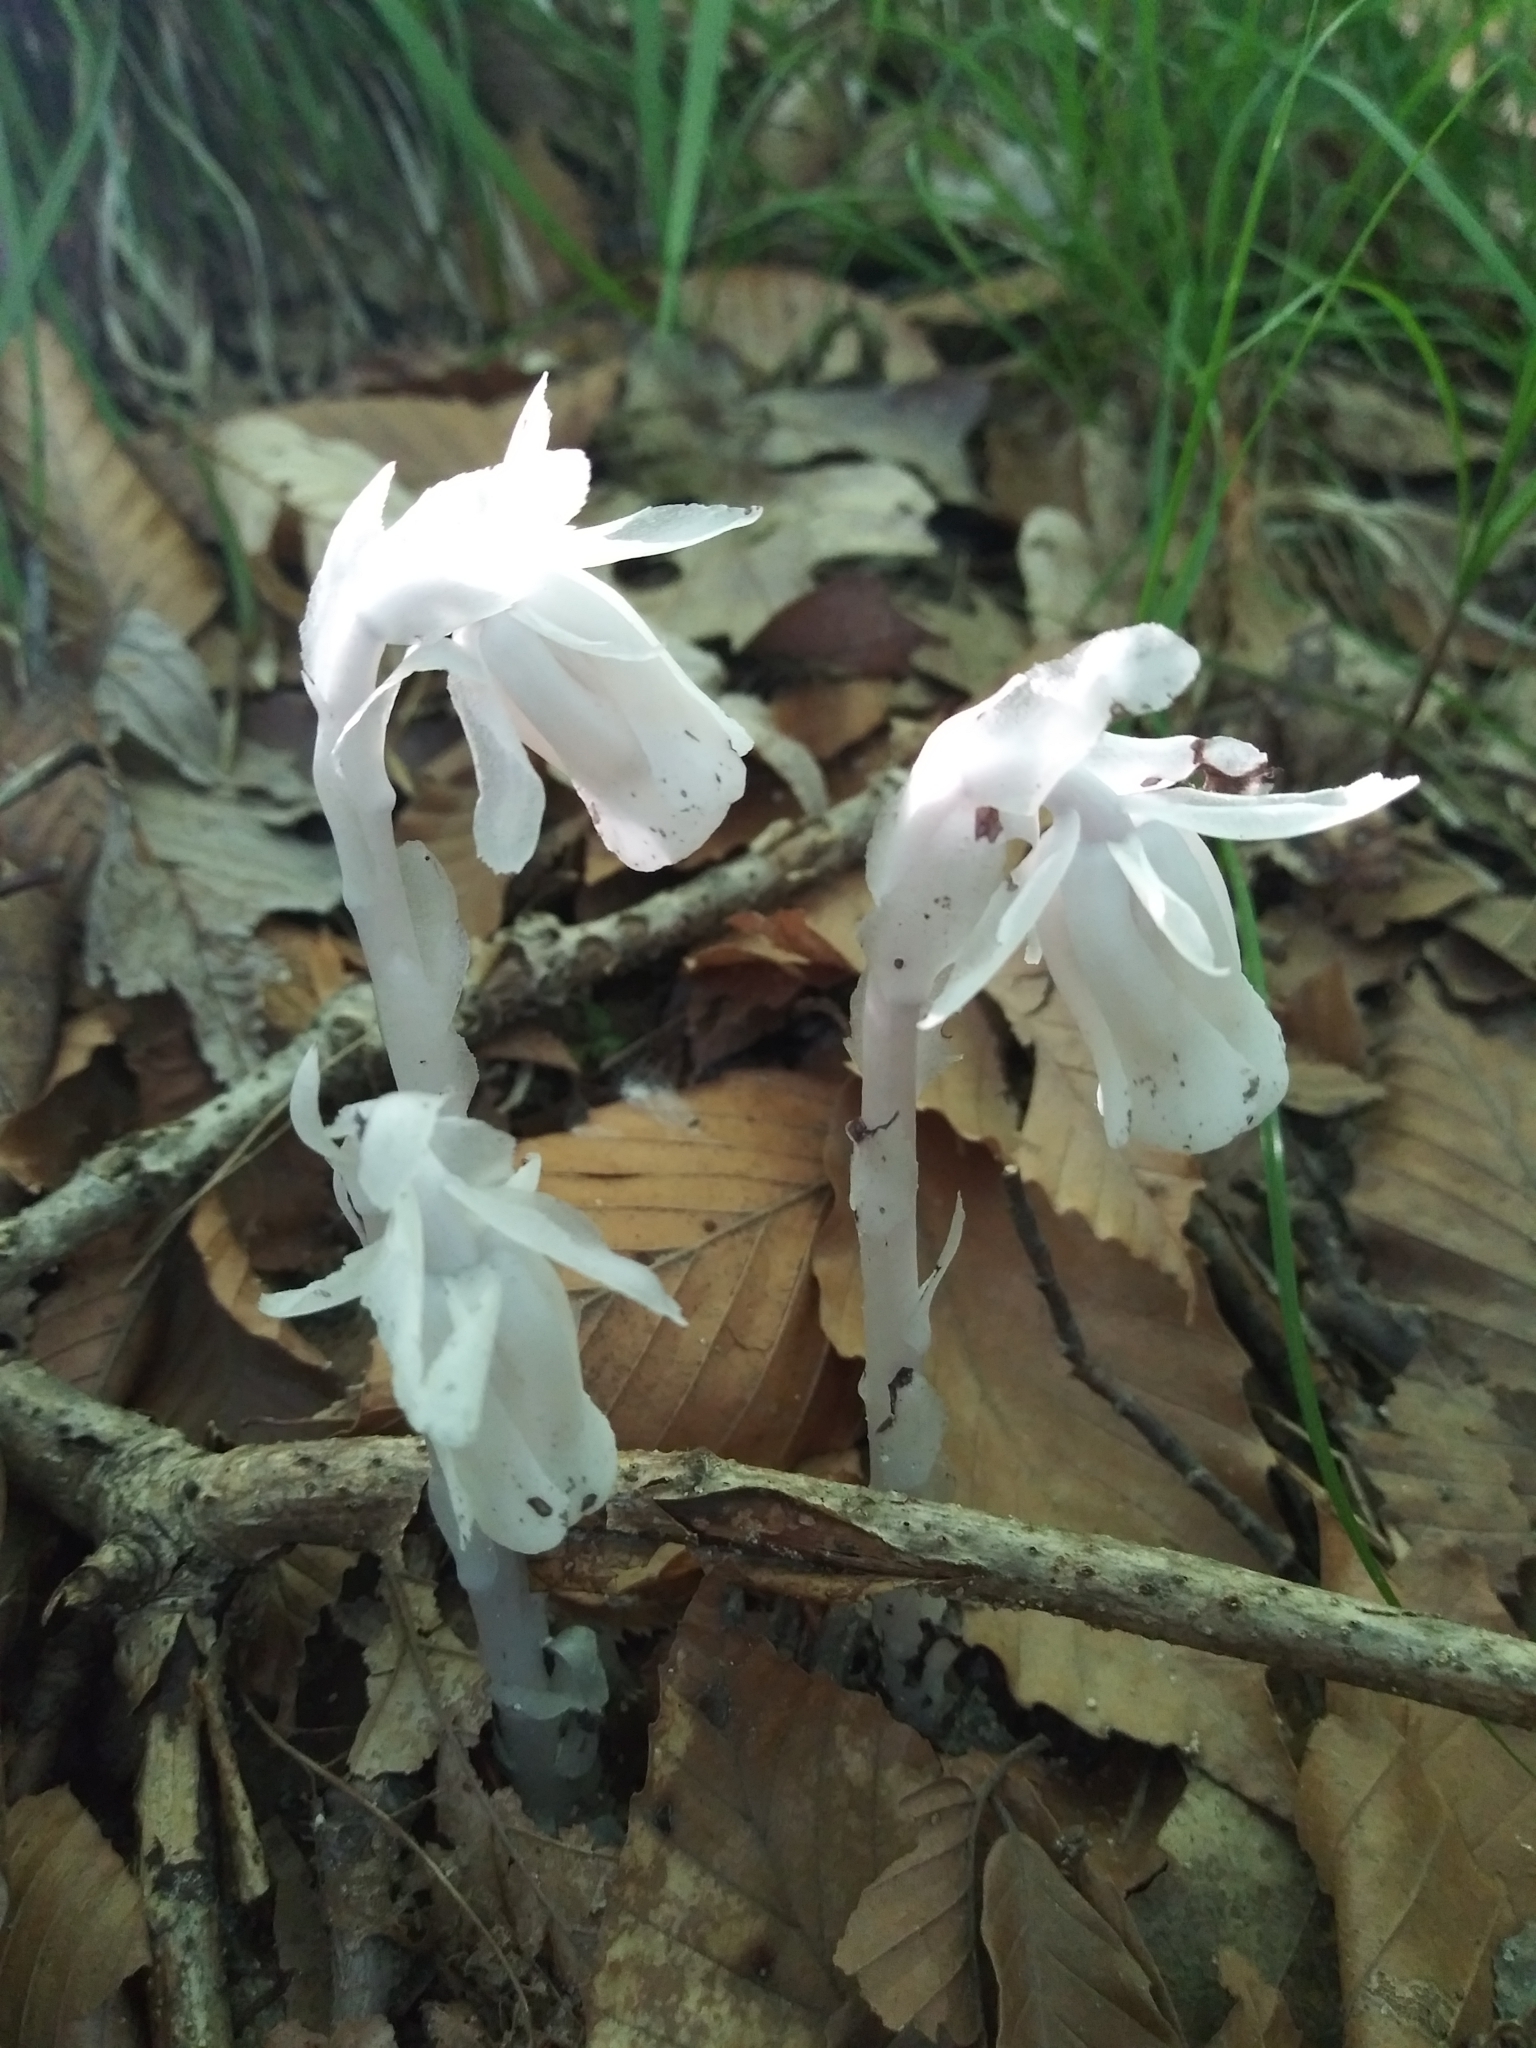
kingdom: Plantae
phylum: Tracheophyta
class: Magnoliopsida
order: Ericales
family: Ericaceae
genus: Monotropa
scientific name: Monotropa uniflora
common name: Convulsion root
